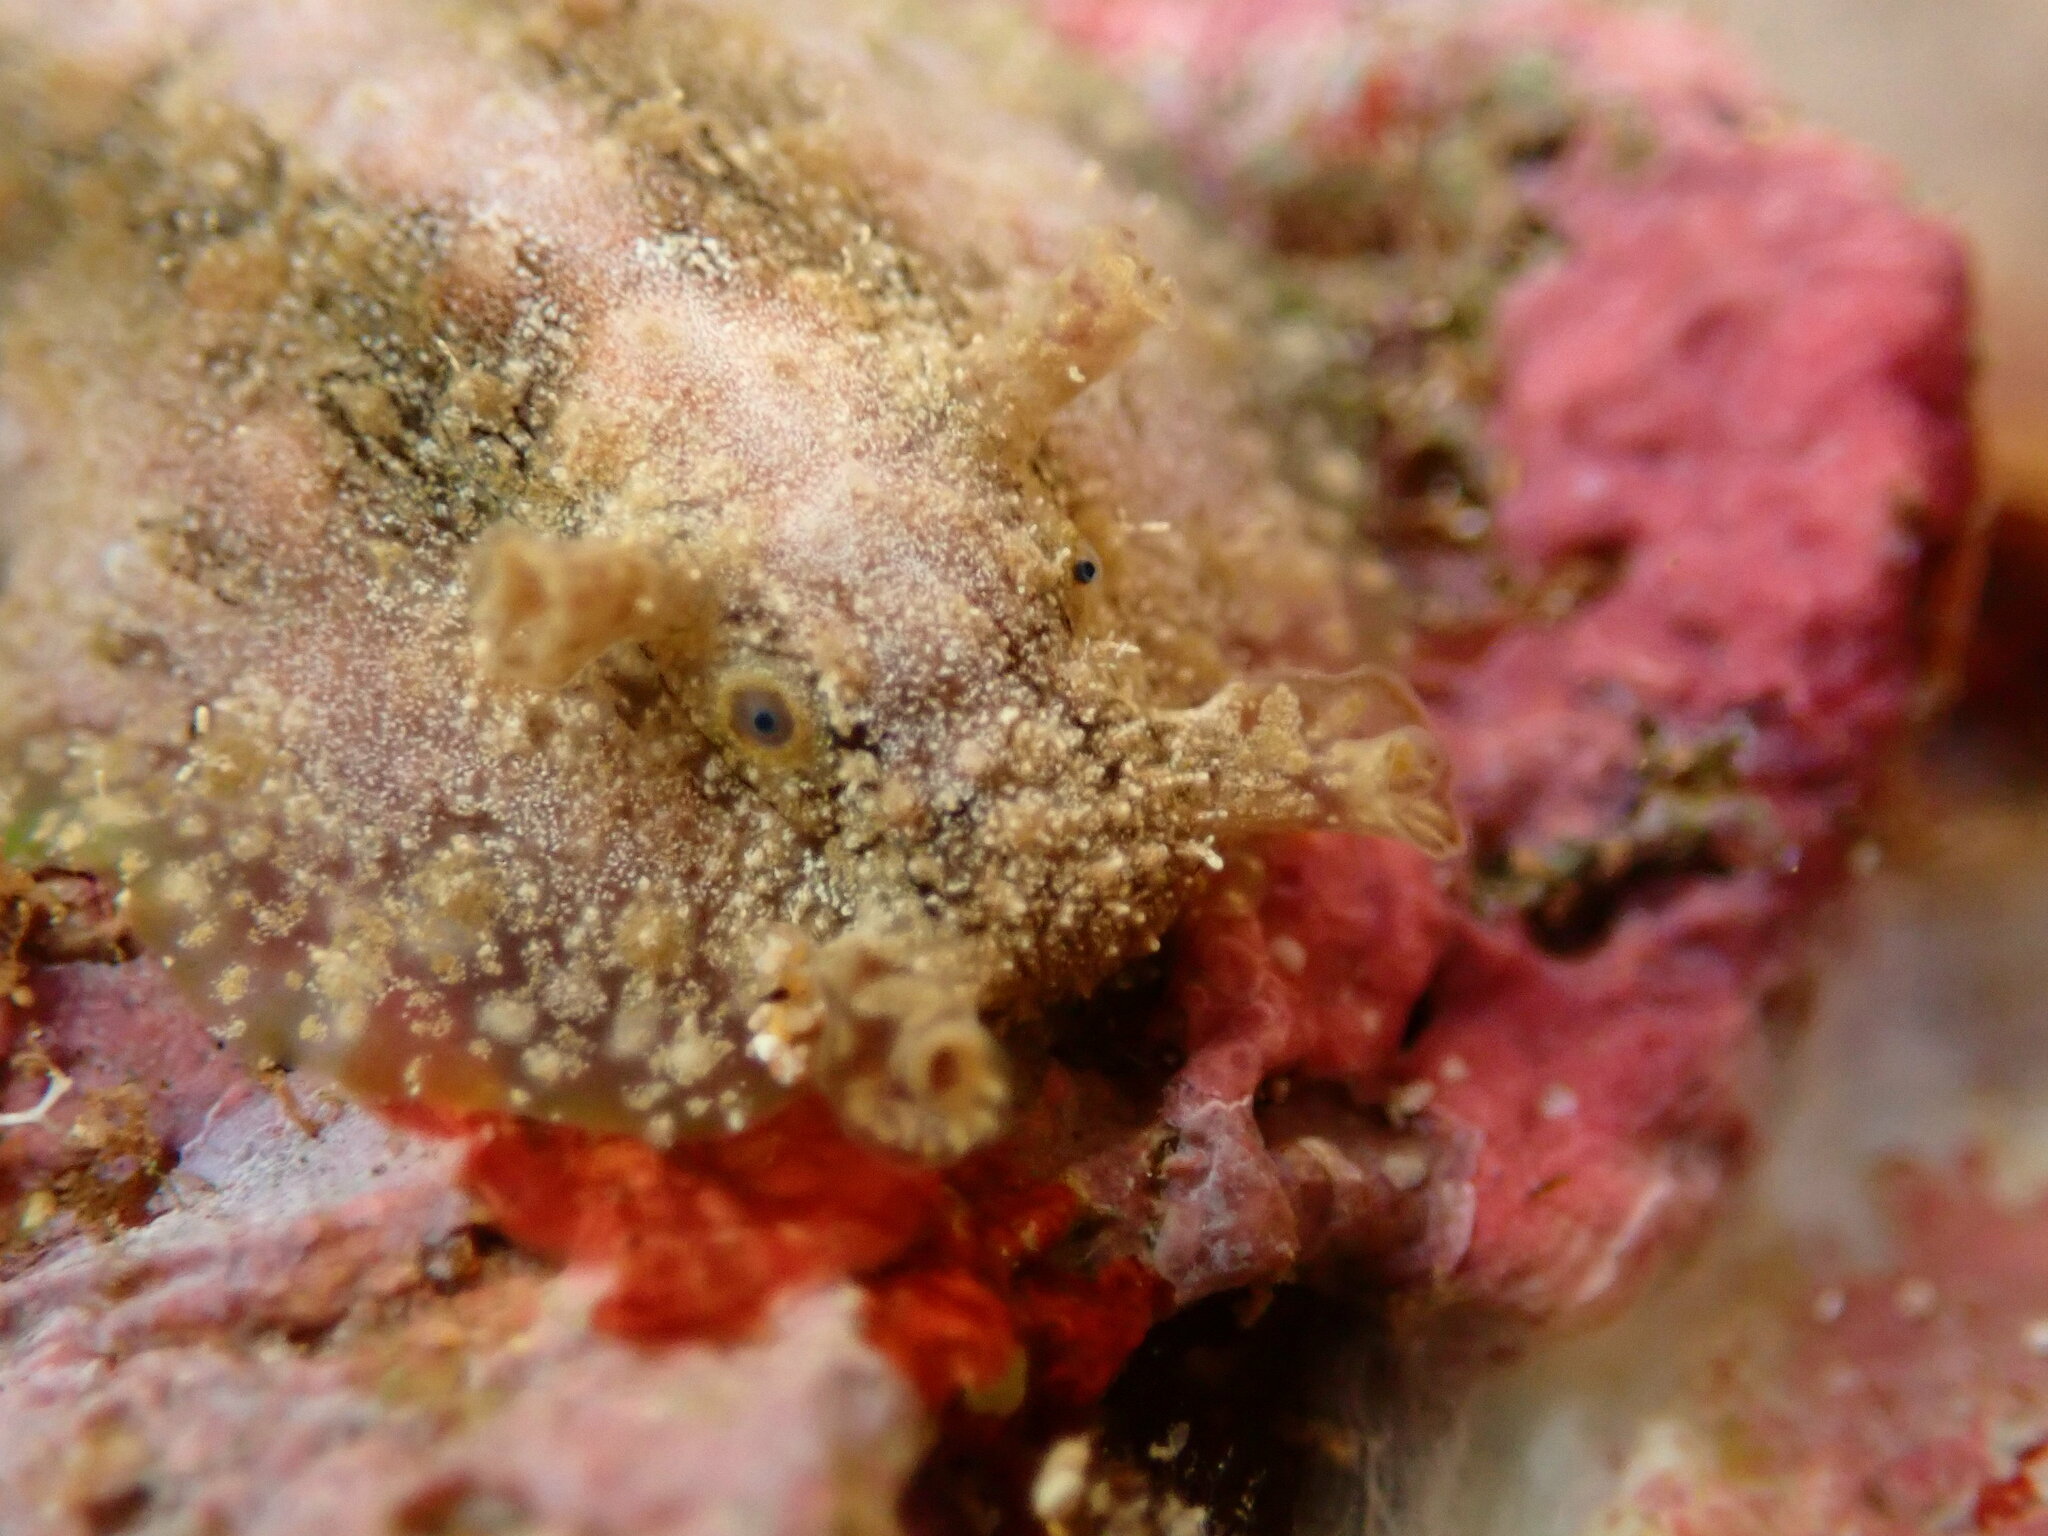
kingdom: Animalia
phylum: Mollusca
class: Gastropoda
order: Aplysiida
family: Aplysiidae
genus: Dolabrifera
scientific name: Dolabrifera dolabrifera
